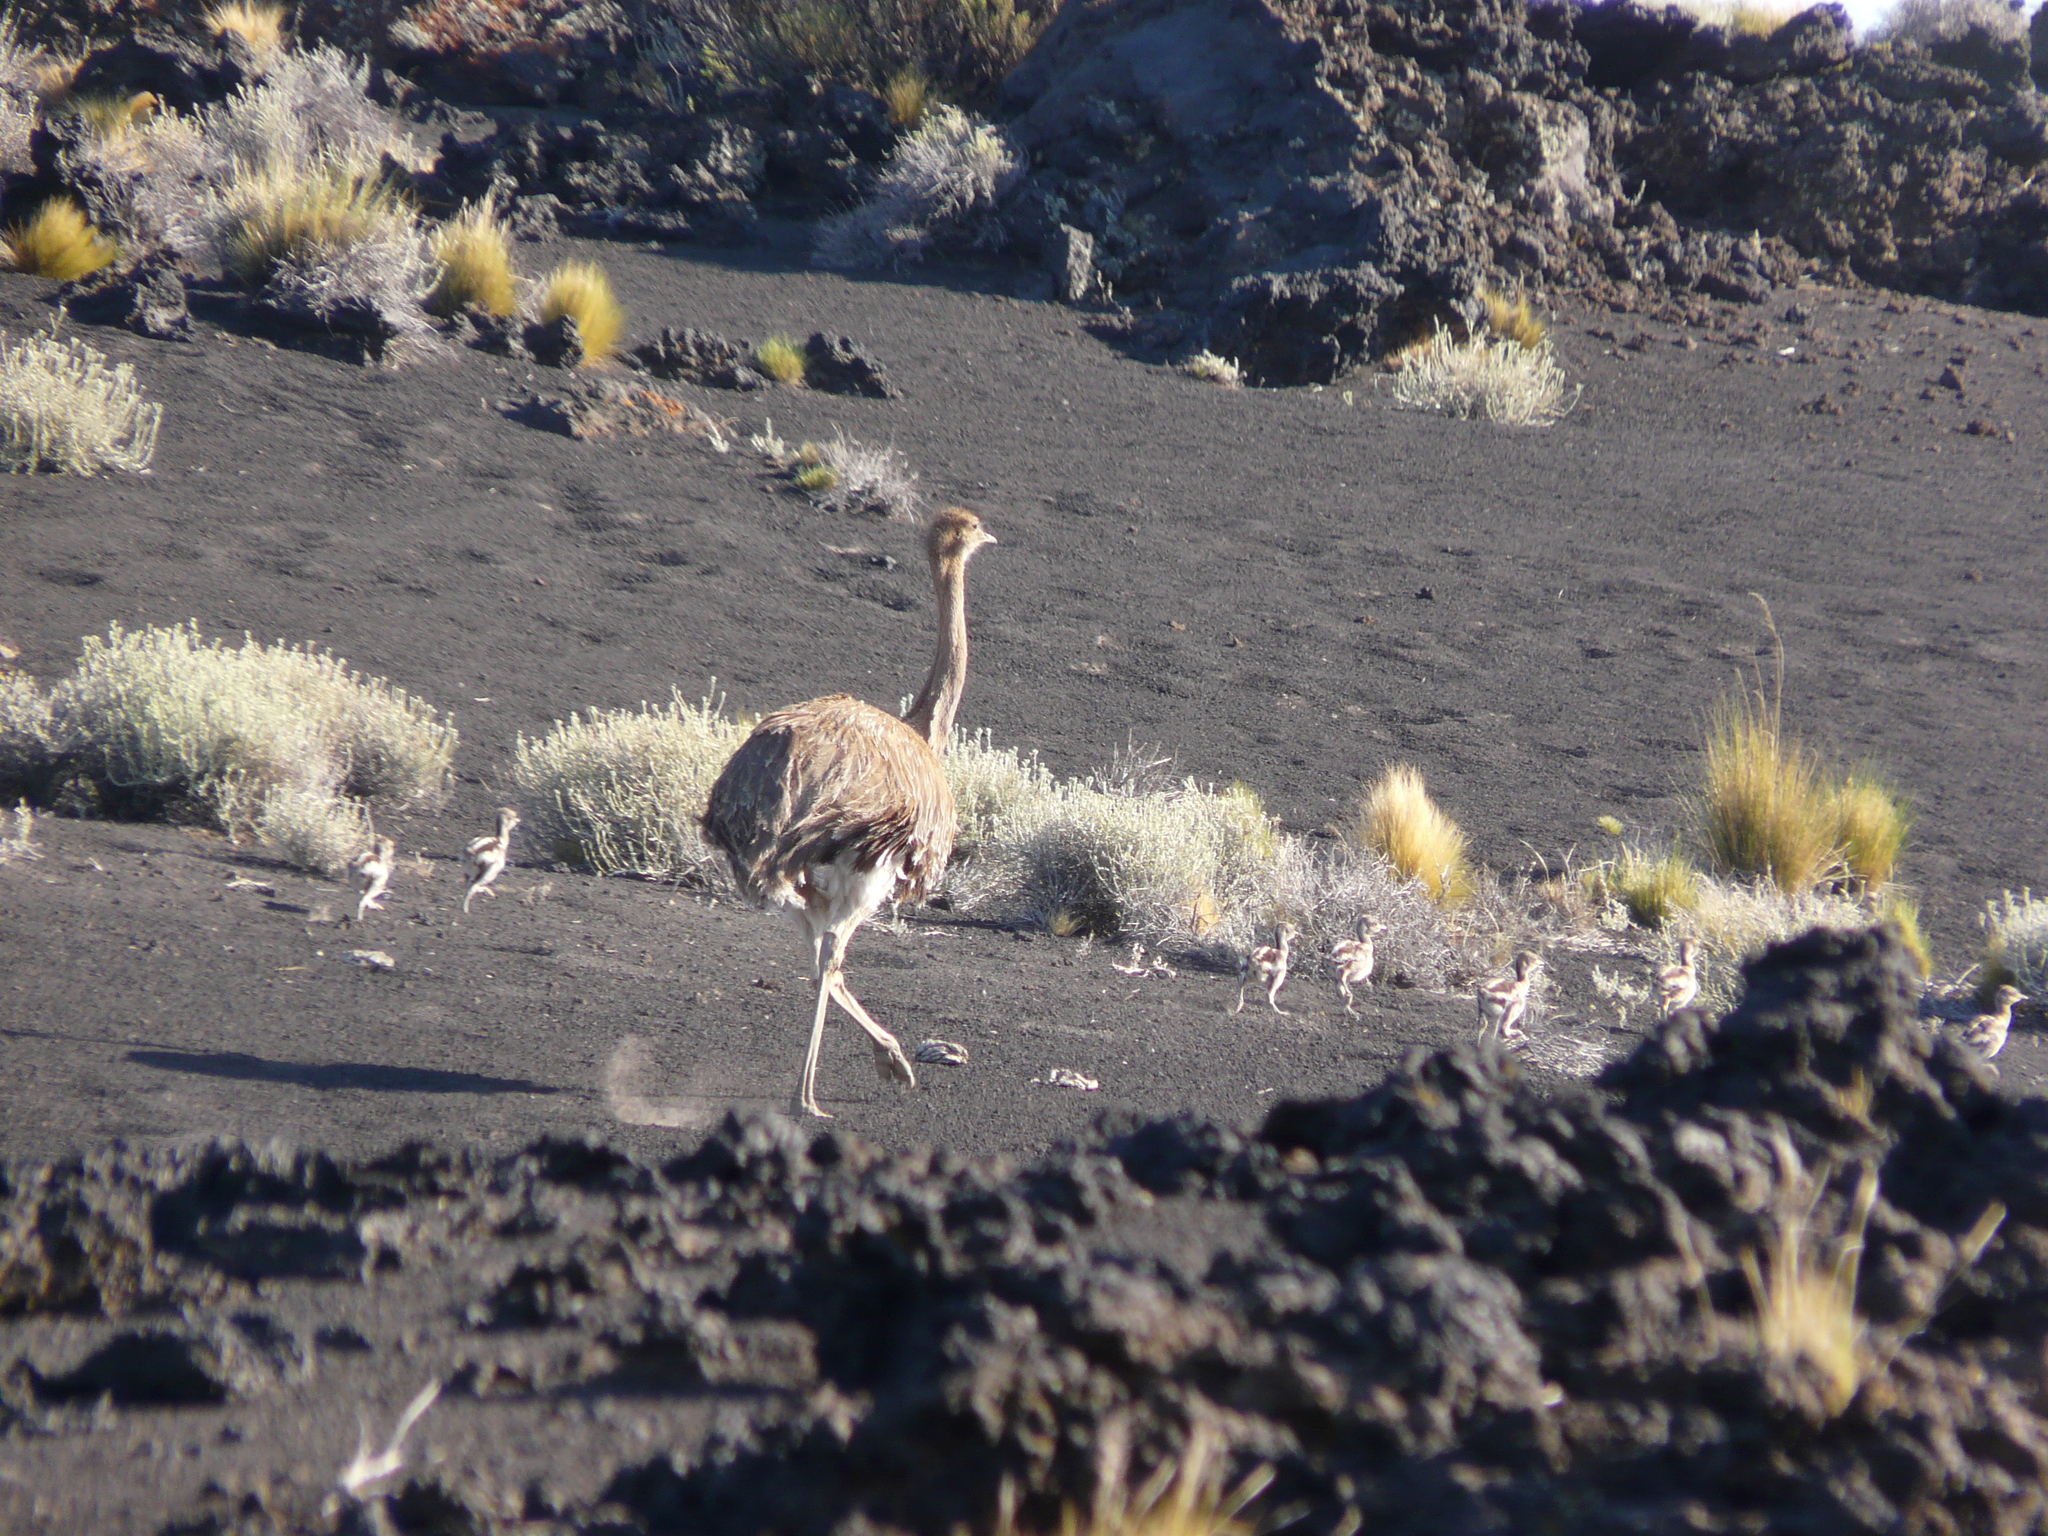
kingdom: Animalia
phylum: Chordata
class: Aves
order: Rheiformes
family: Rheidae
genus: Rhea
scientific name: Rhea pennata
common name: Lesser rhea
